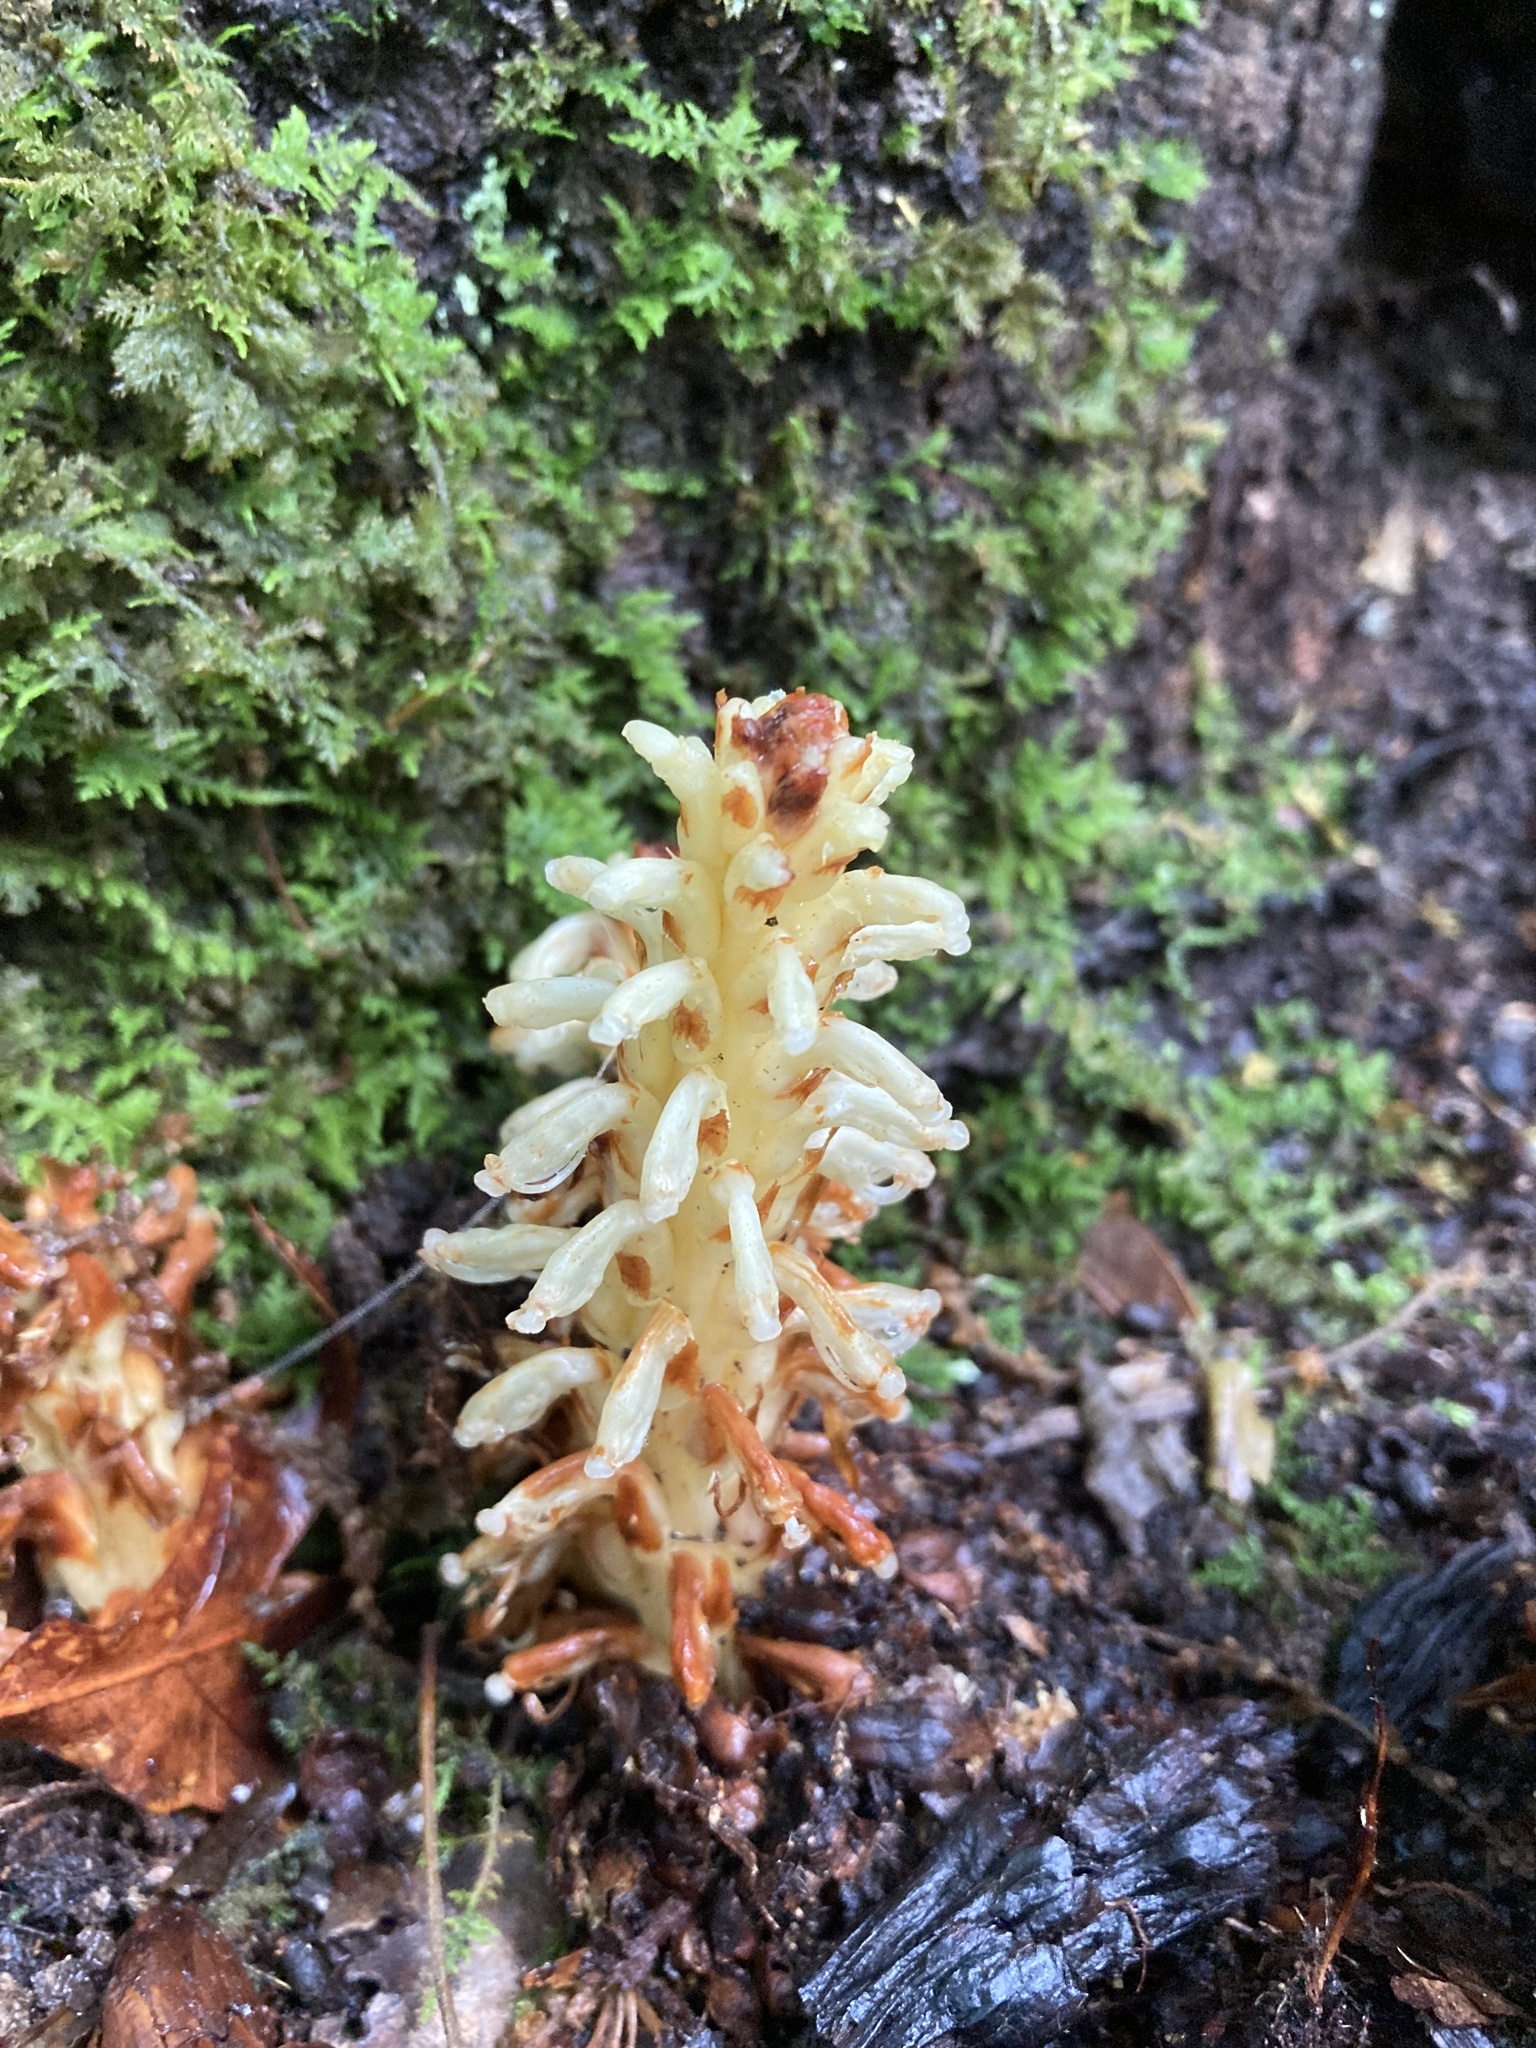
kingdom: Plantae
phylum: Tracheophyta
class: Magnoliopsida
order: Lamiales
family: Orobanchaceae
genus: Conopholis
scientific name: Conopholis americana
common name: American cancer-root
